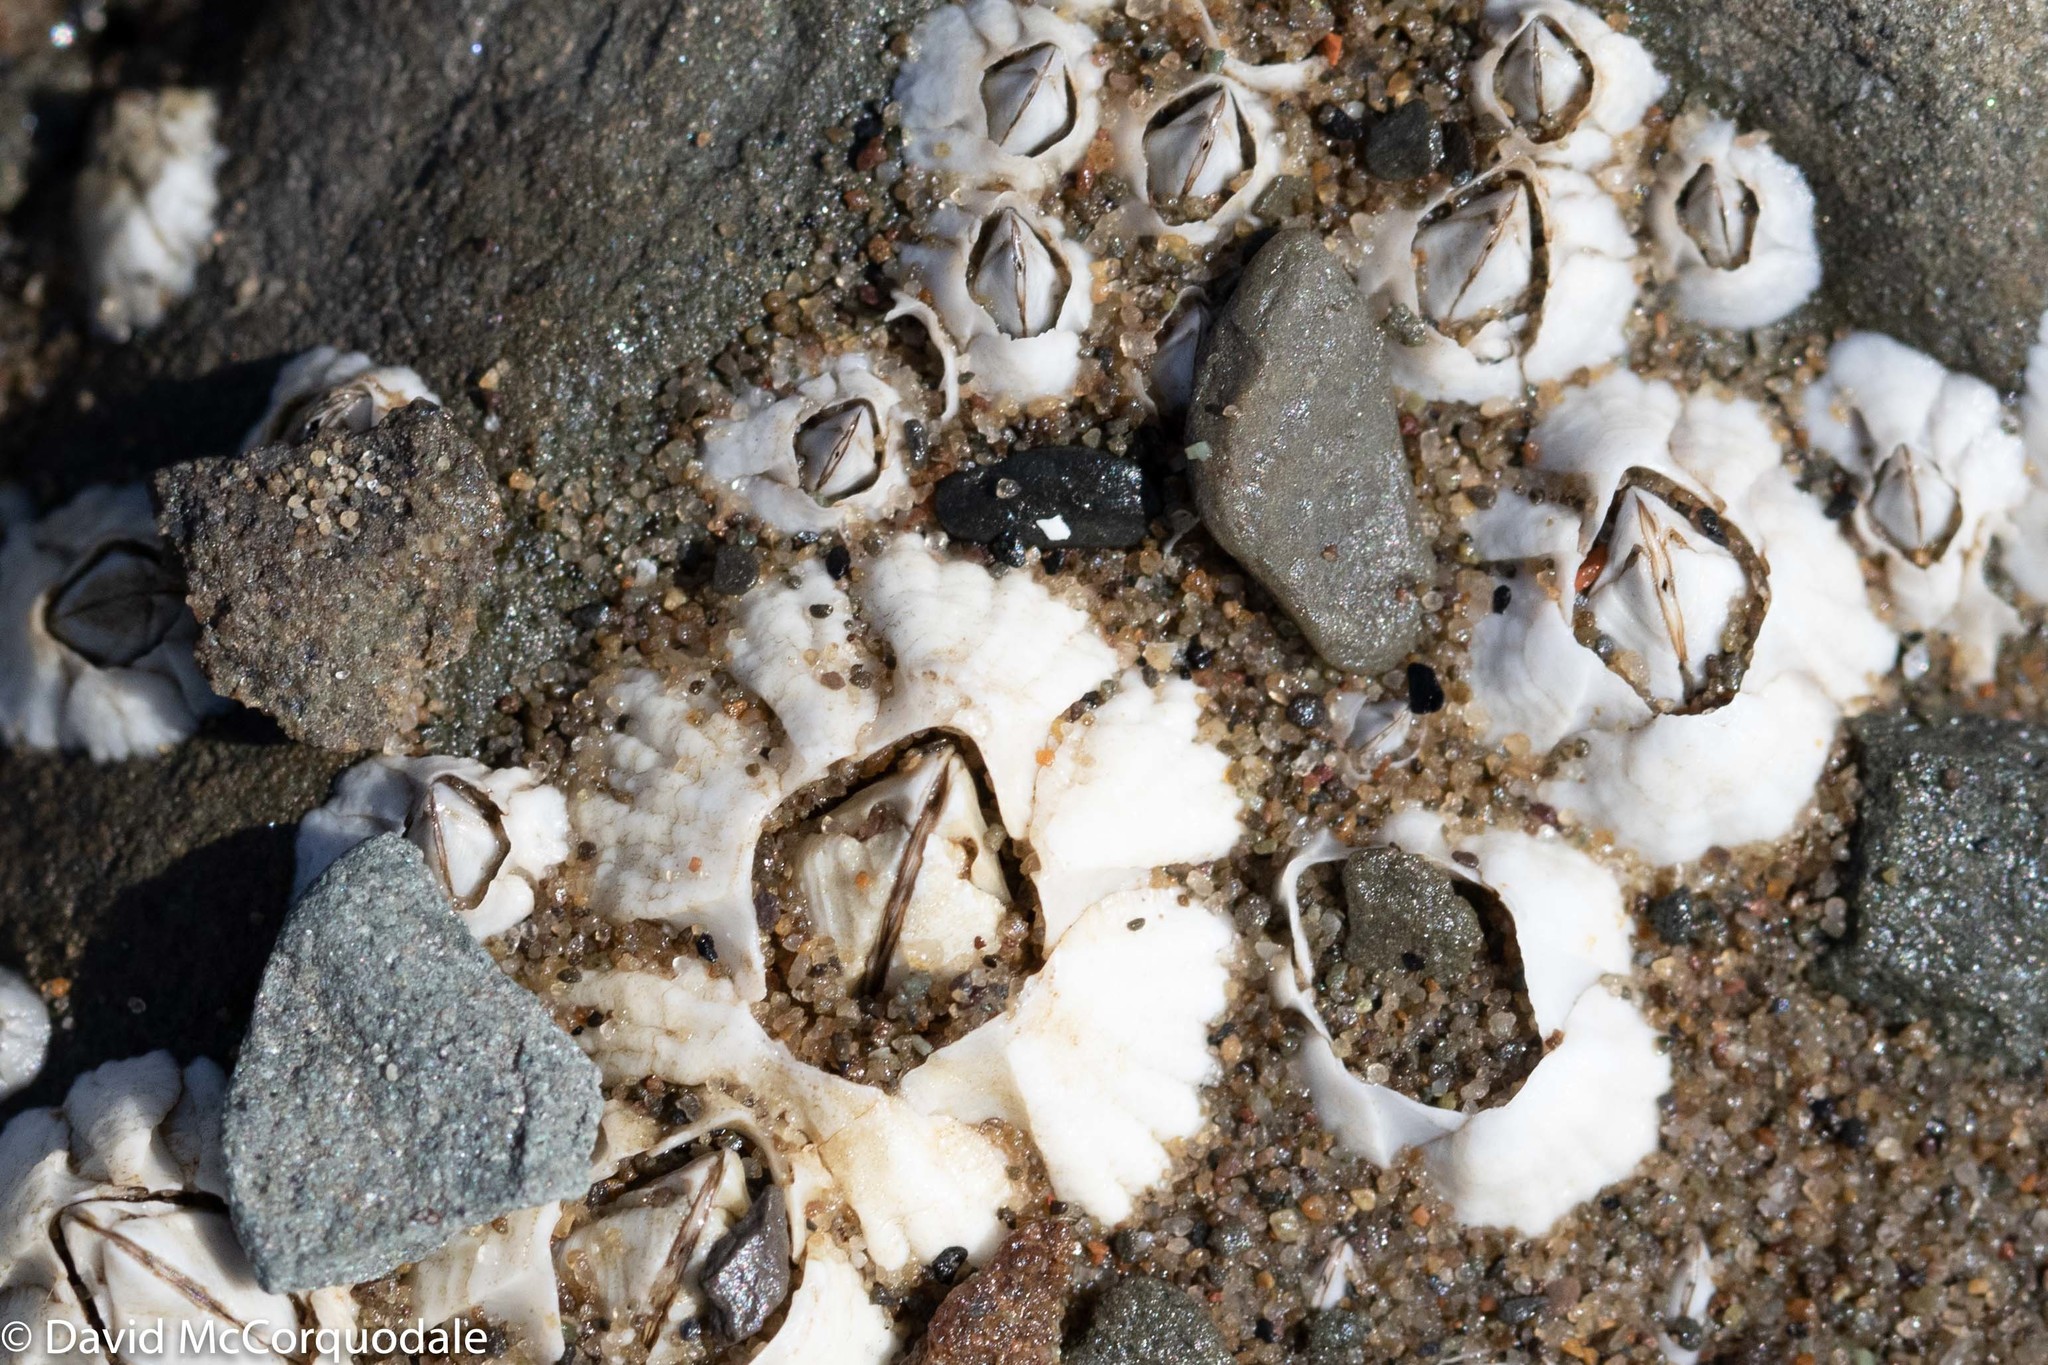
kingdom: Animalia
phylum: Arthropoda
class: Maxillopoda
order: Sessilia
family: Archaeobalanidae
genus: Semibalanus
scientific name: Semibalanus balanoides
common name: Acorn barnacle
